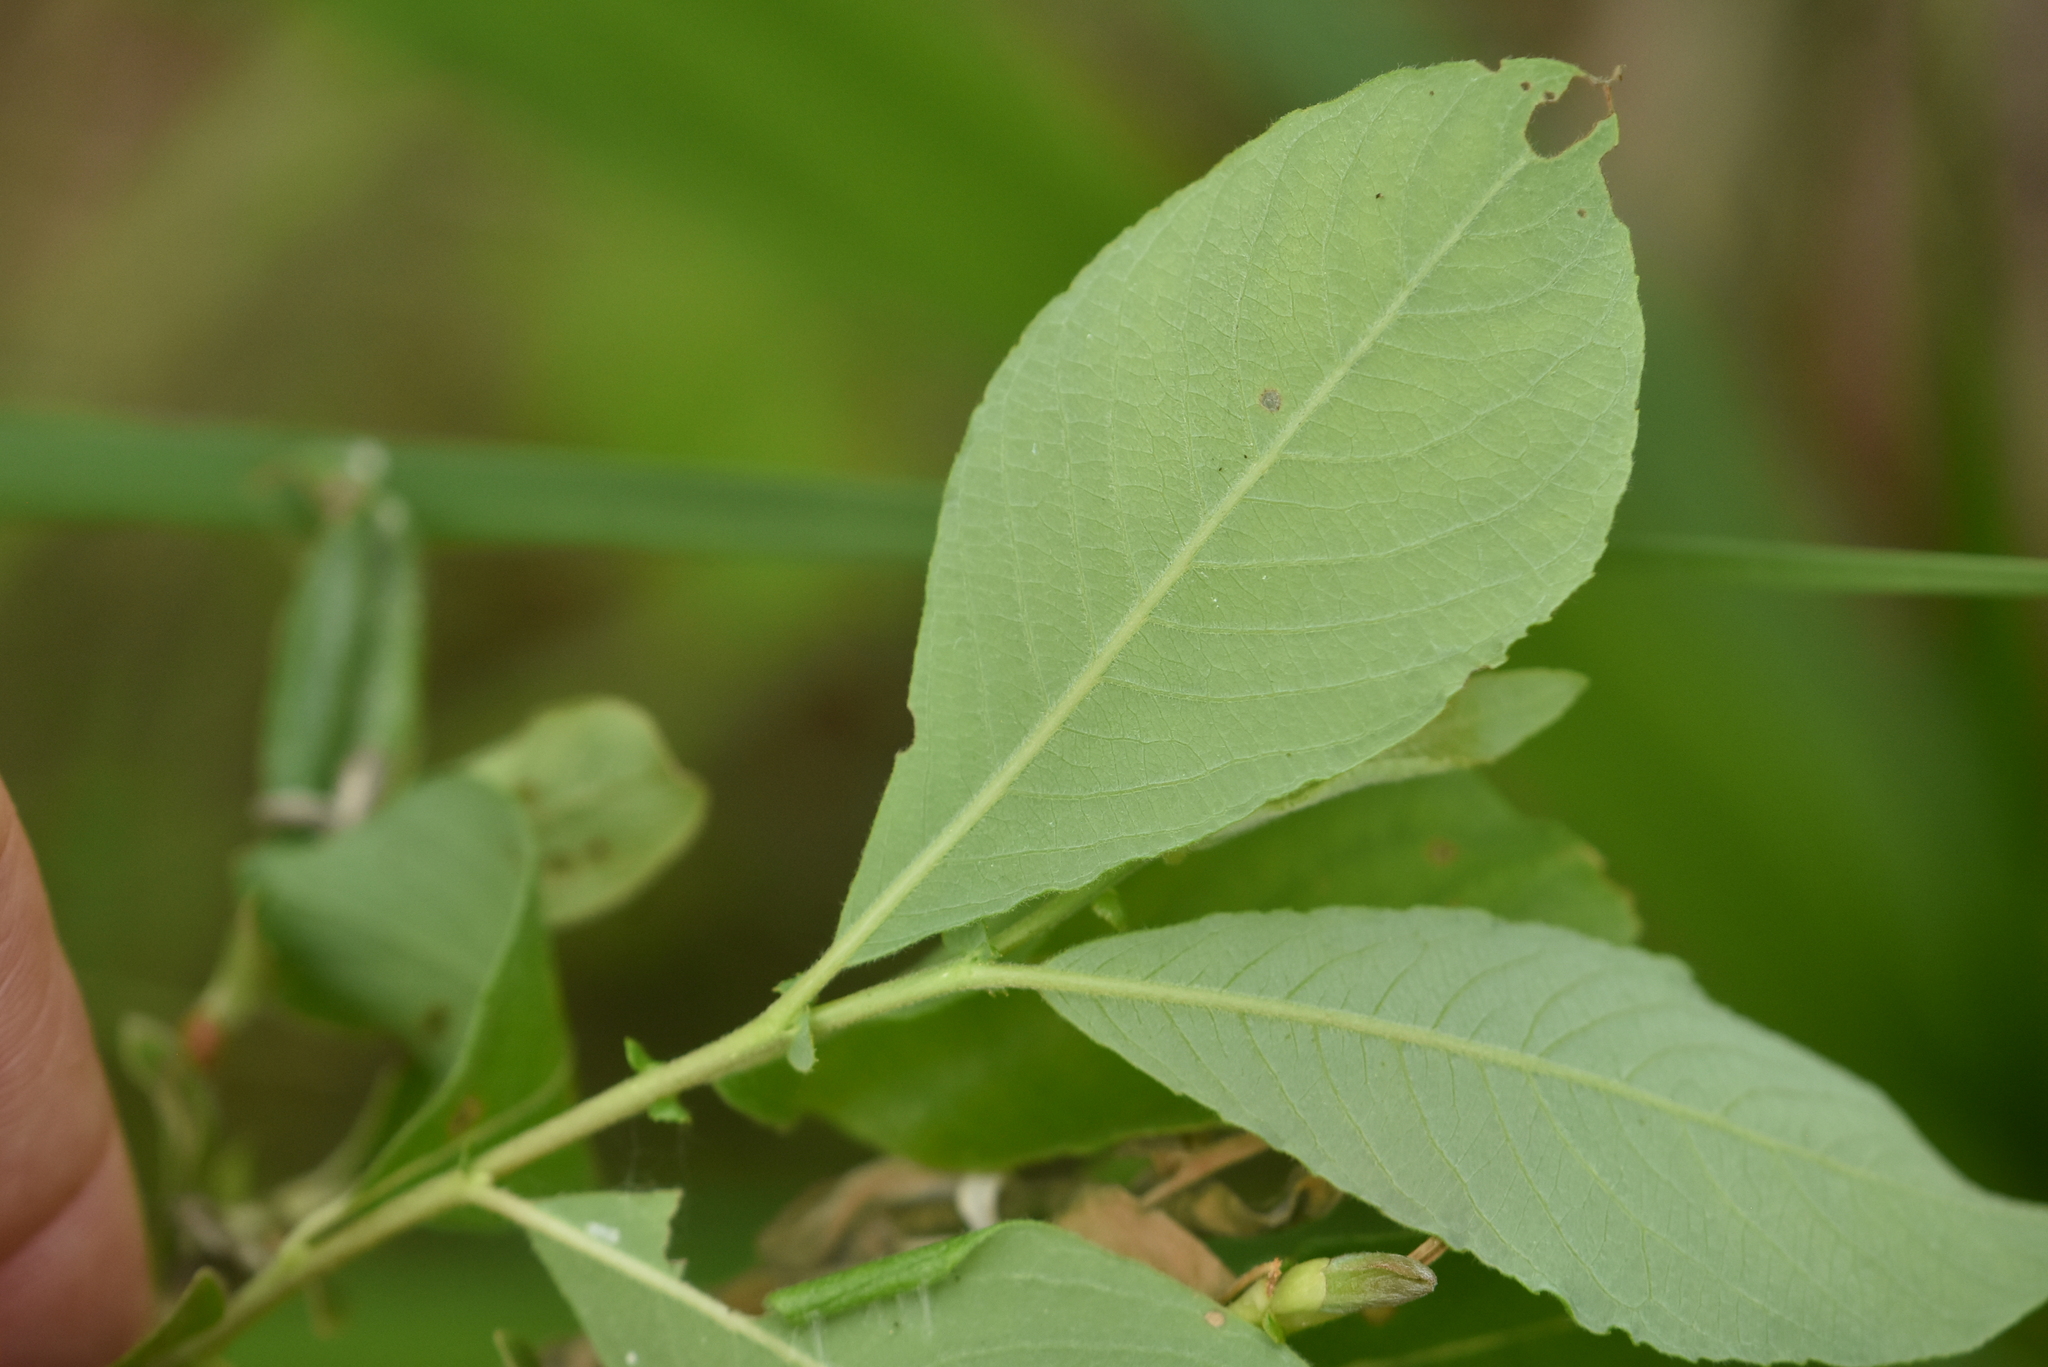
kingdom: Plantae
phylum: Tracheophyta
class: Magnoliopsida
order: Malpighiales
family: Salicaceae
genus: Salix
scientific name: Salix aurita
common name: Eared willow
